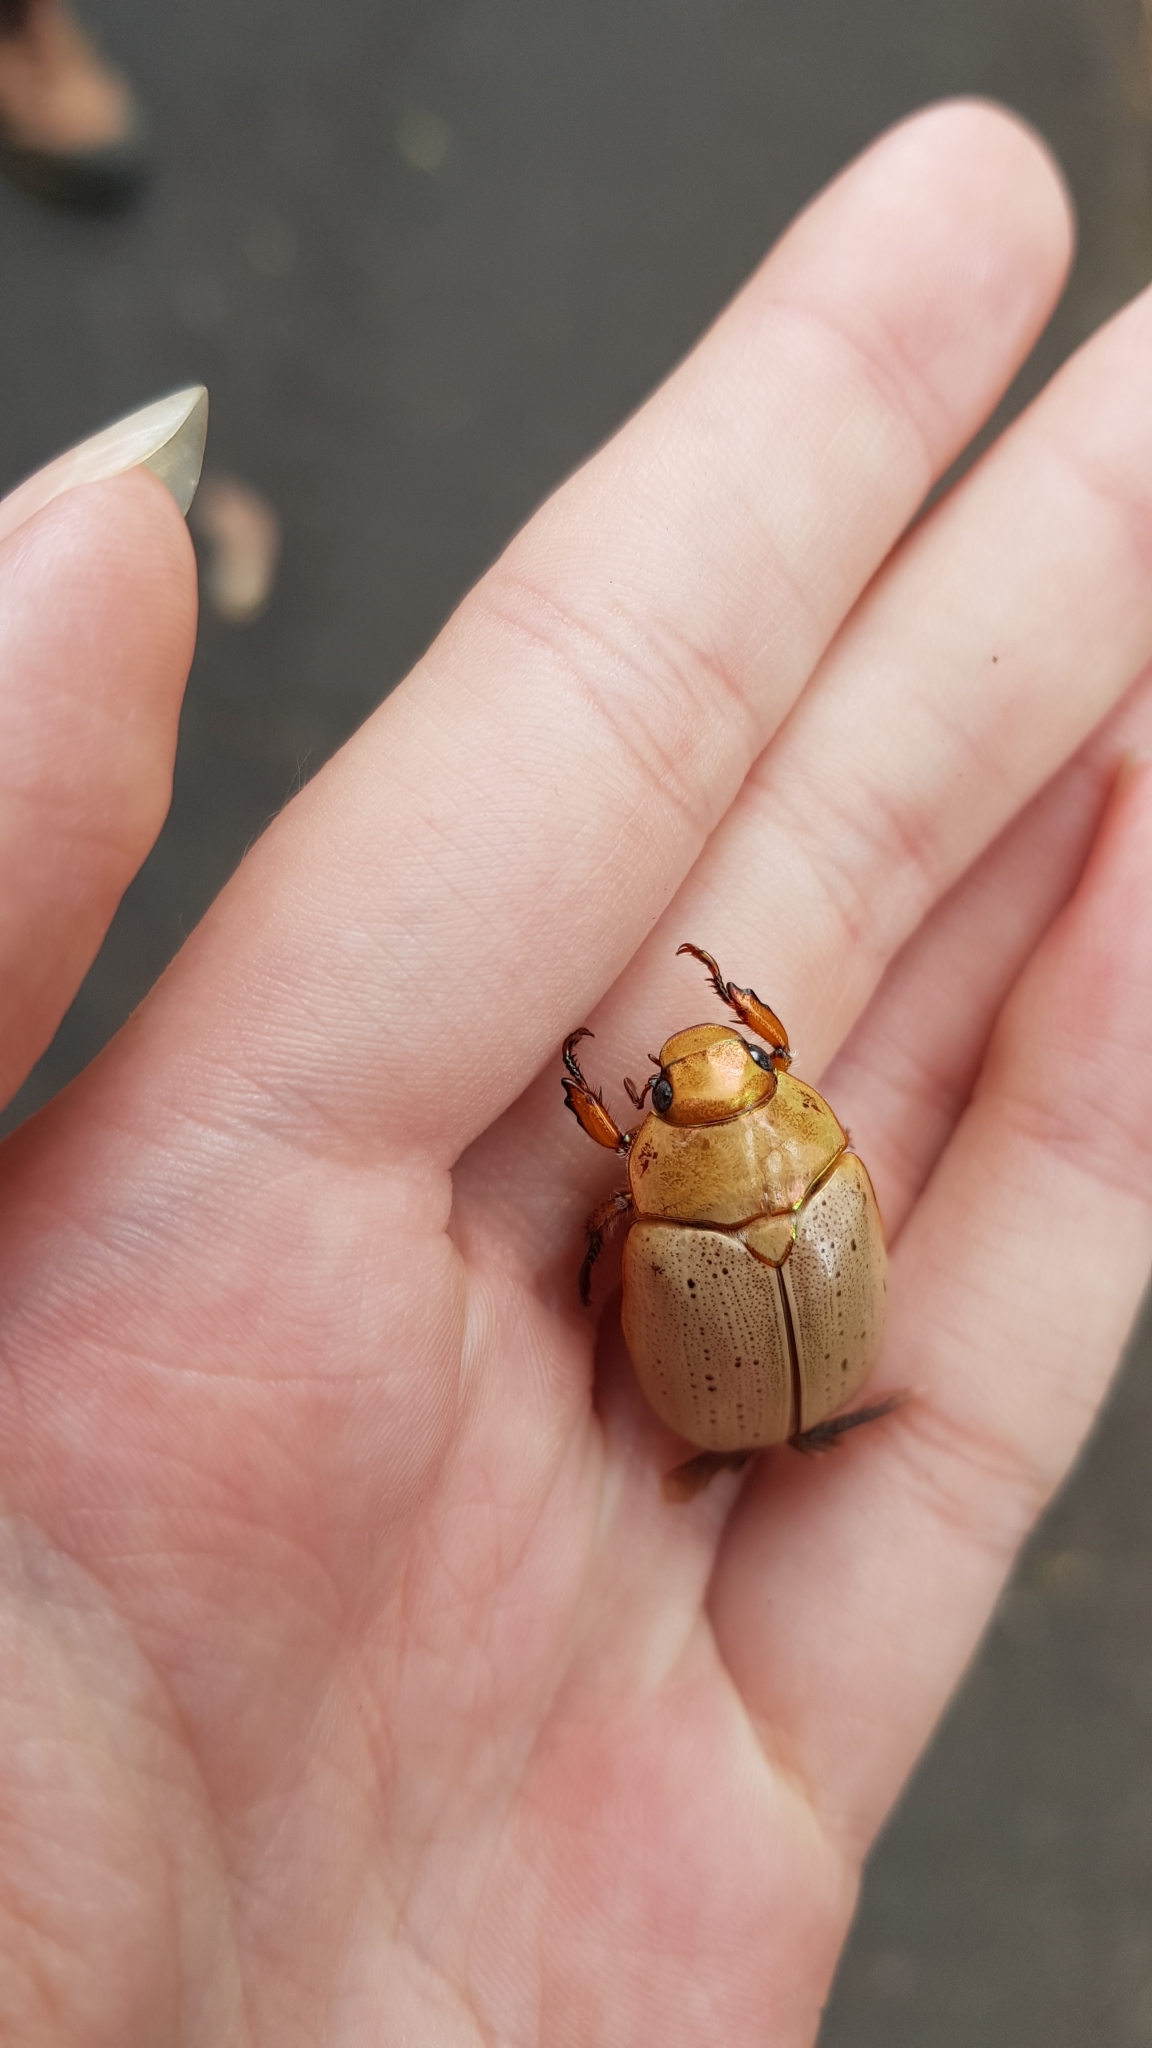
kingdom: Animalia
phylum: Arthropoda
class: Insecta
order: Coleoptera
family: Scarabaeidae
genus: Anoplognathus
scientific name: Anoplognathus porosus
